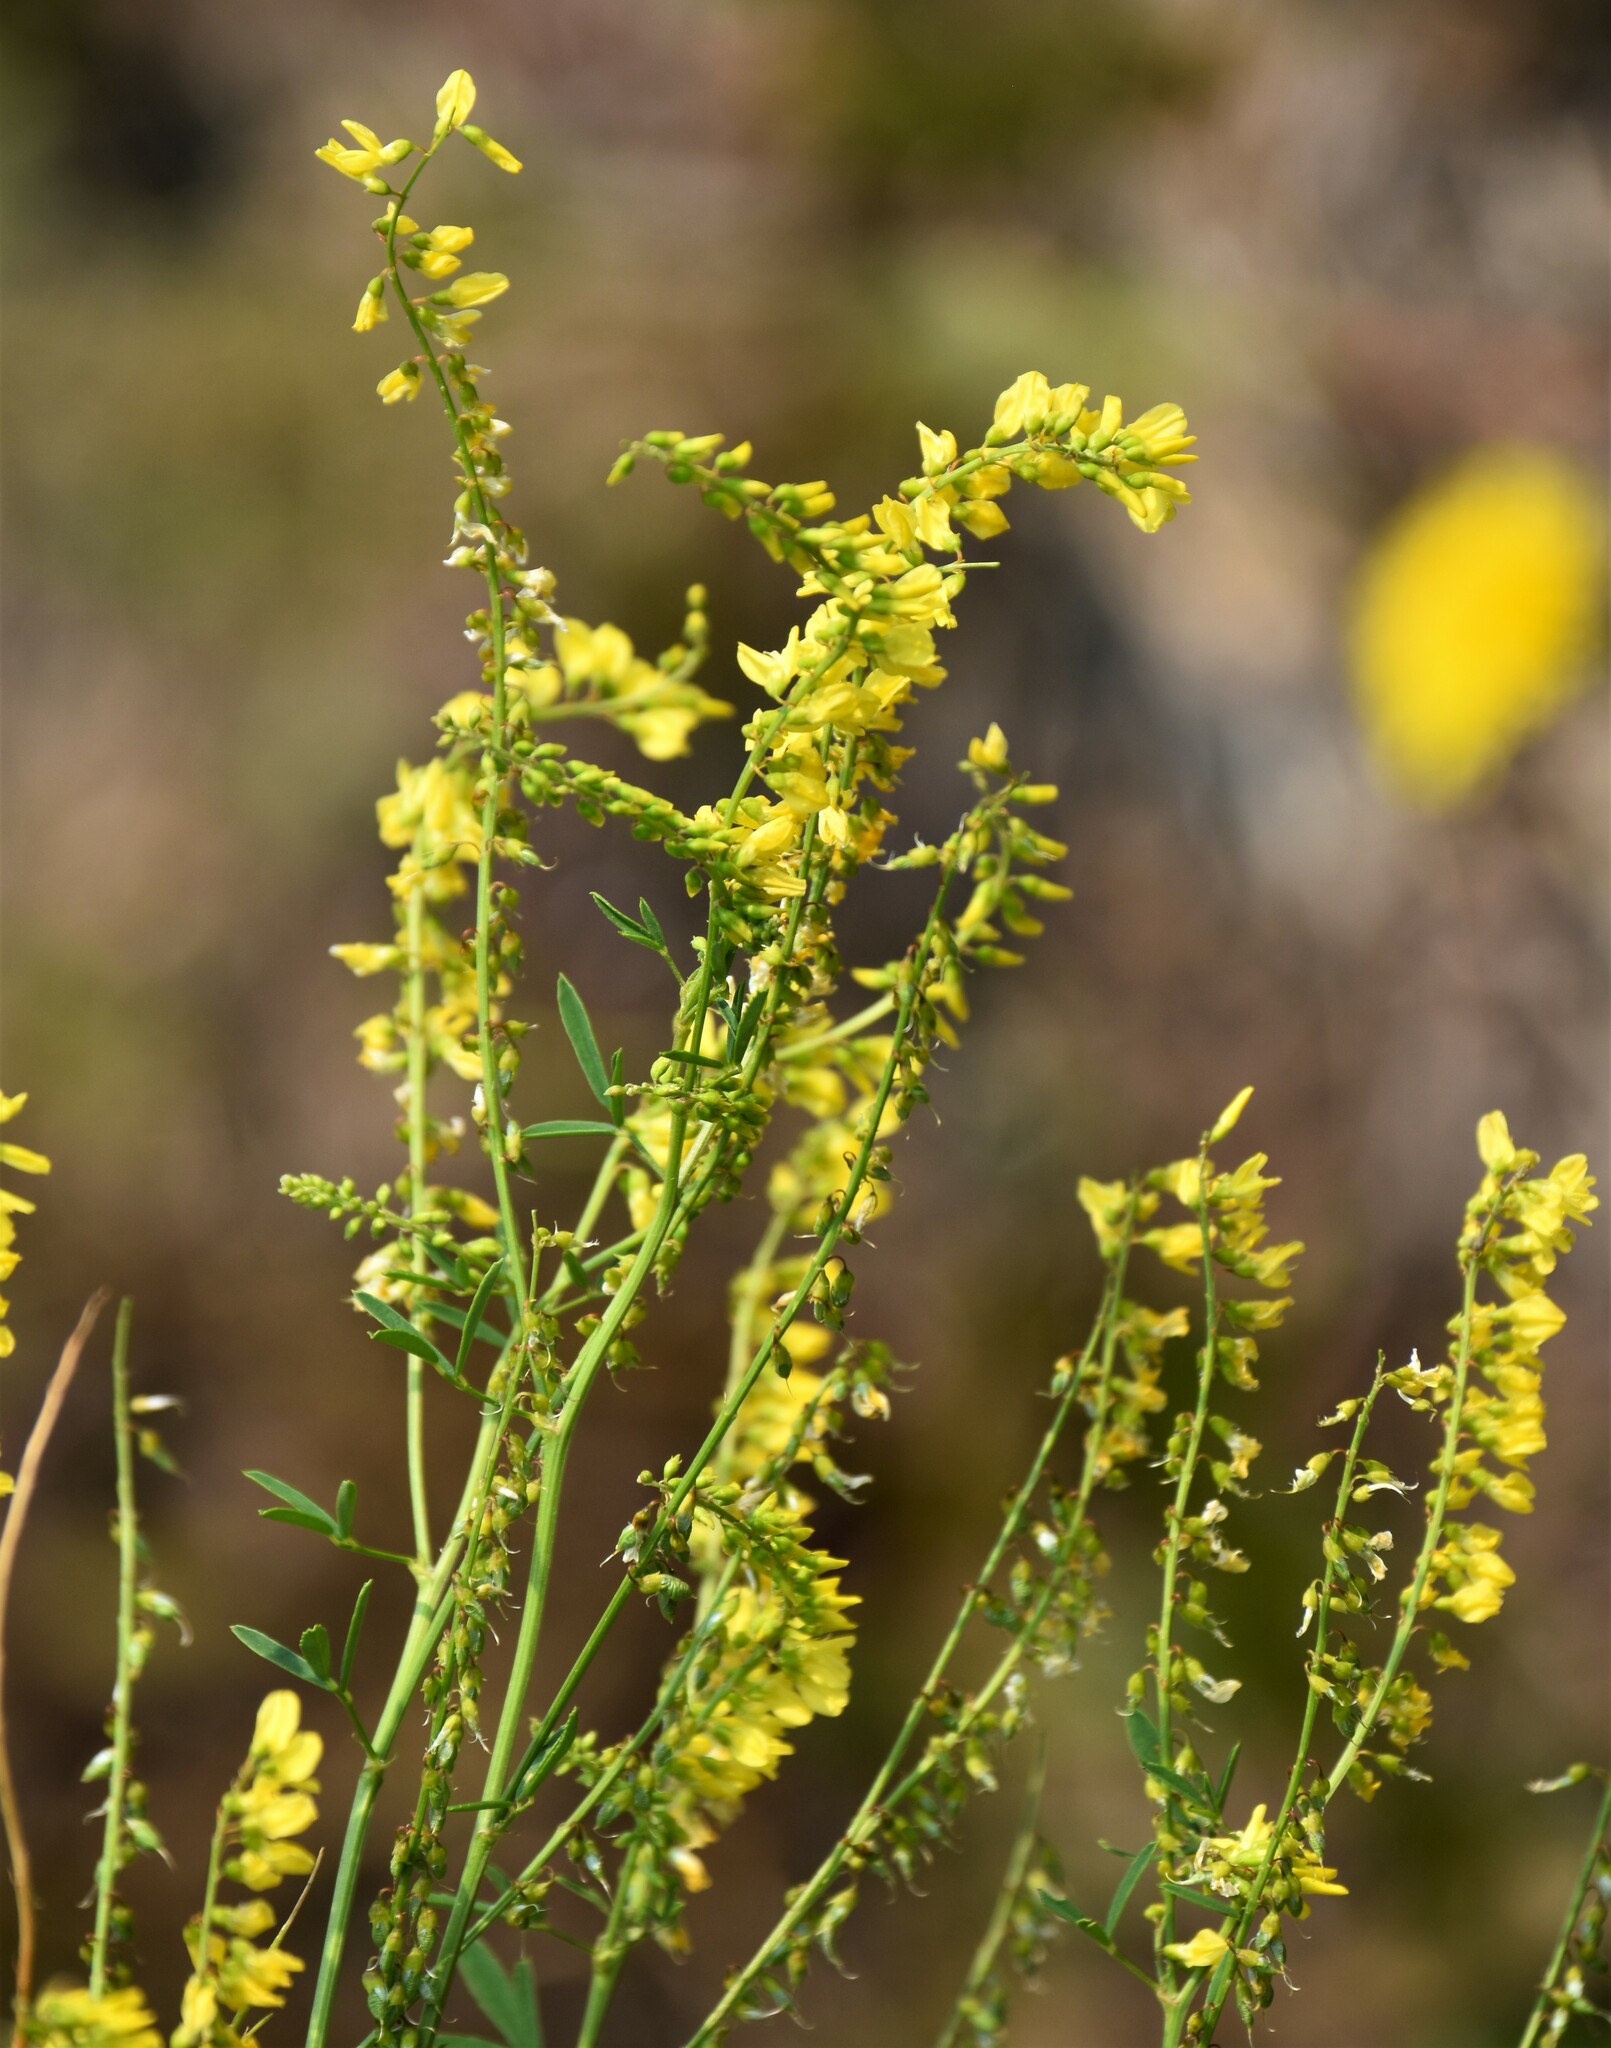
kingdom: Plantae
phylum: Tracheophyta
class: Magnoliopsida
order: Fabales
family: Fabaceae
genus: Melilotus
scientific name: Melilotus officinalis
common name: Sweetclover
